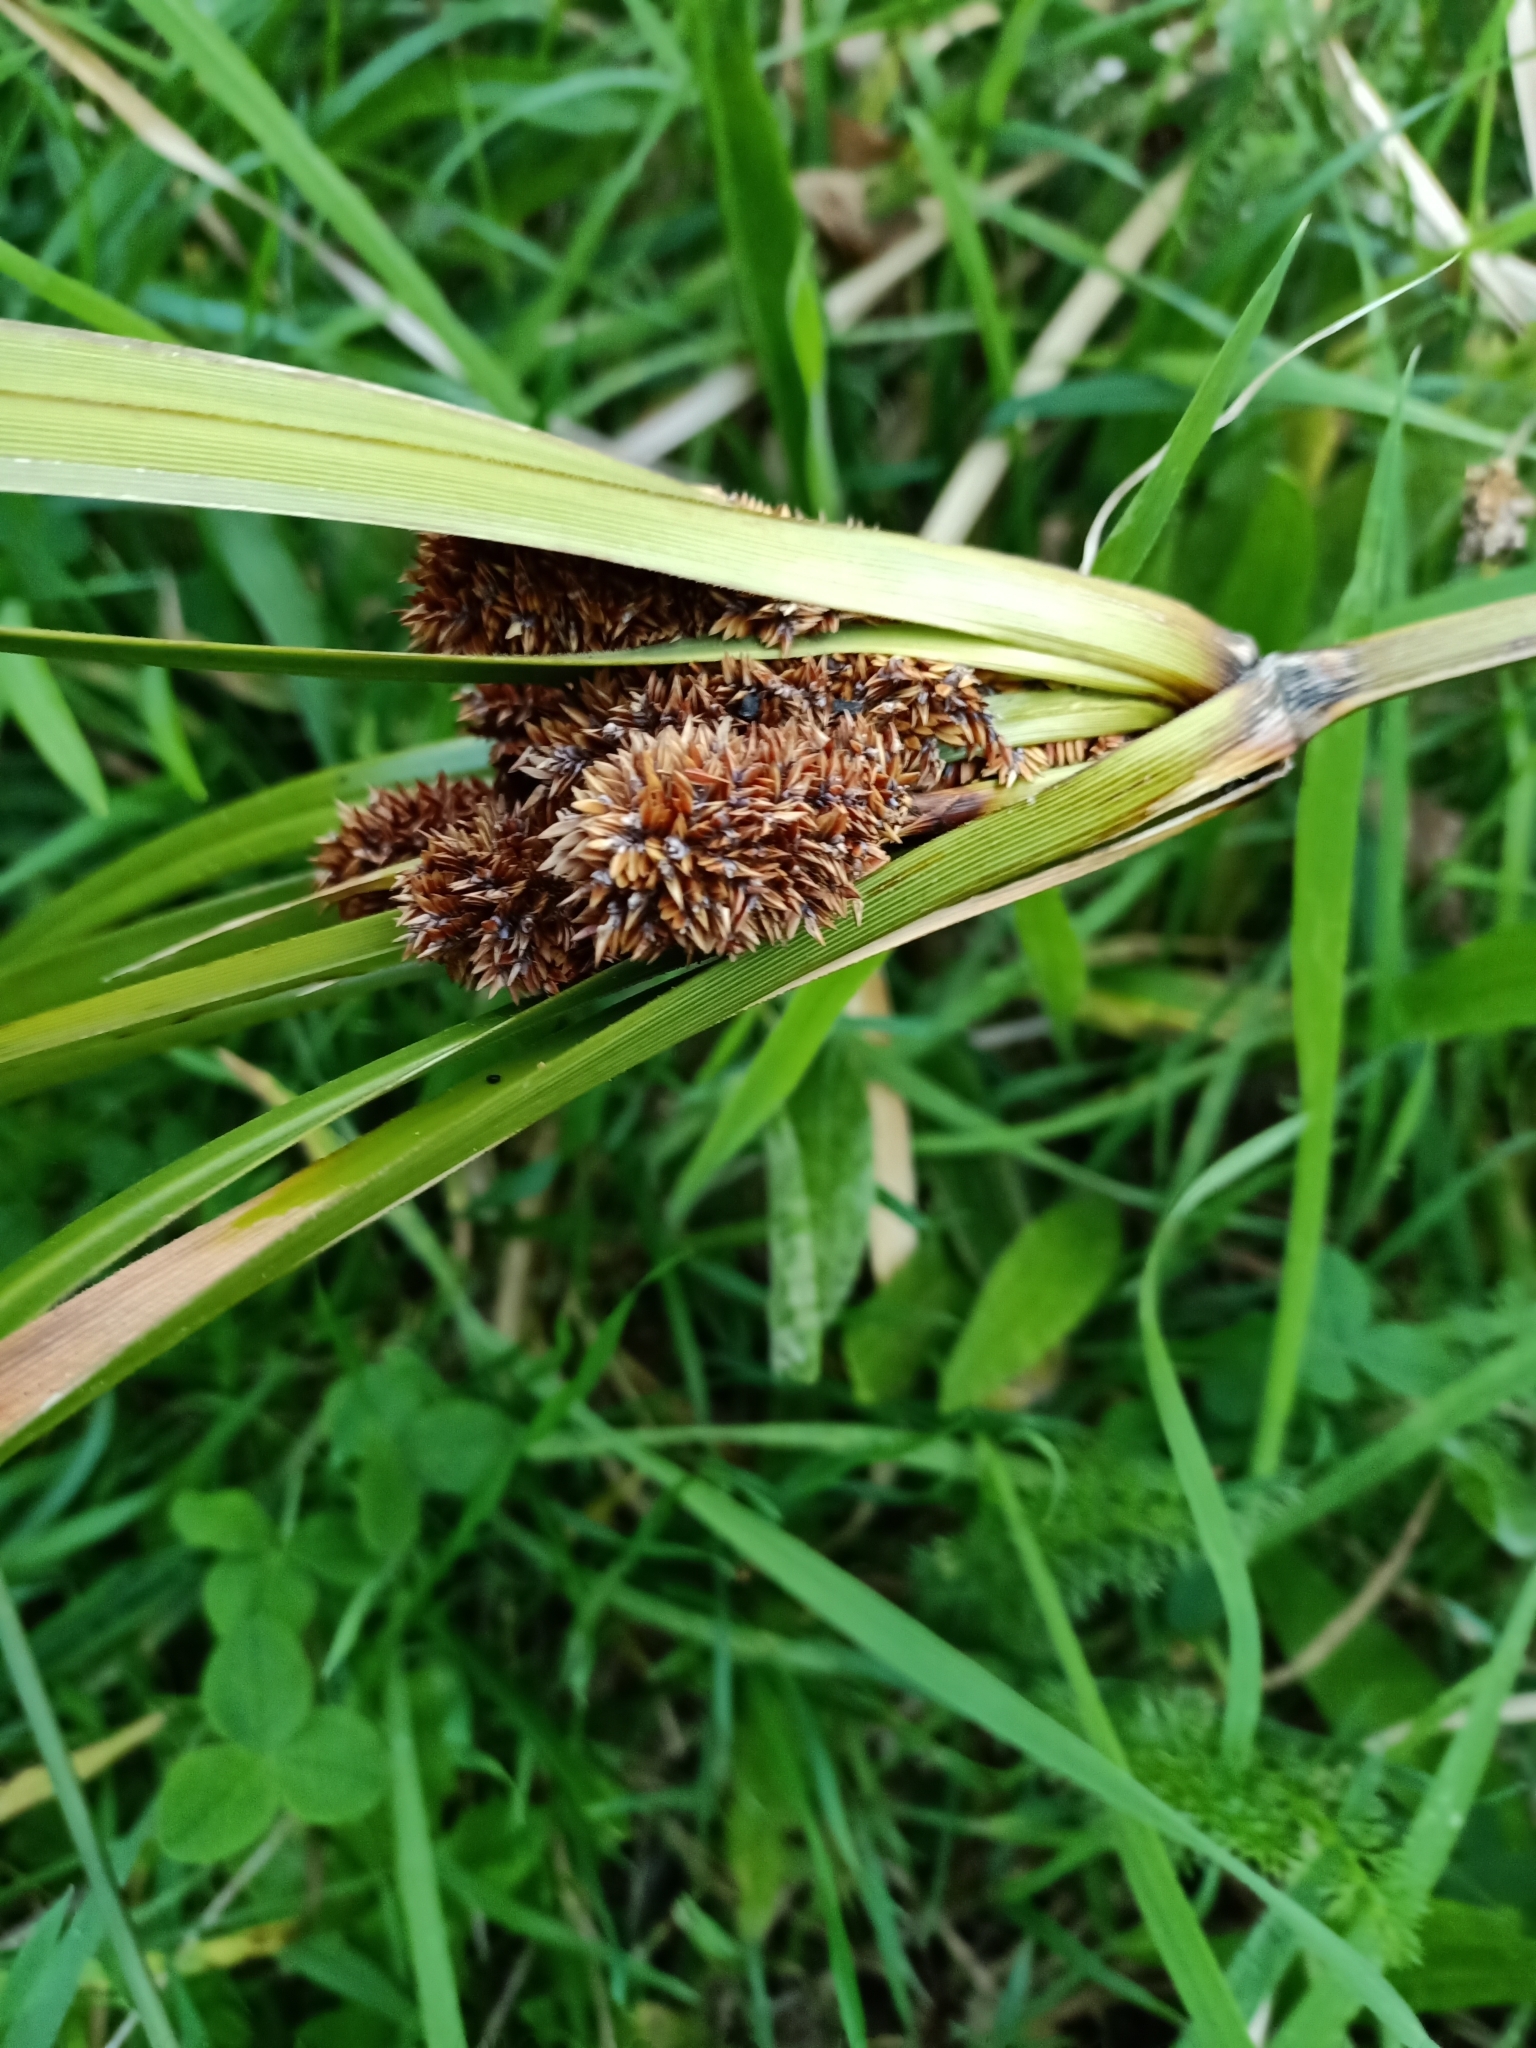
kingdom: Plantae
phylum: Tracheophyta
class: Liliopsida
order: Poales
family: Cyperaceae
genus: Cyperus
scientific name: Cyperus ustulatus
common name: Giant umbrella-sedge
